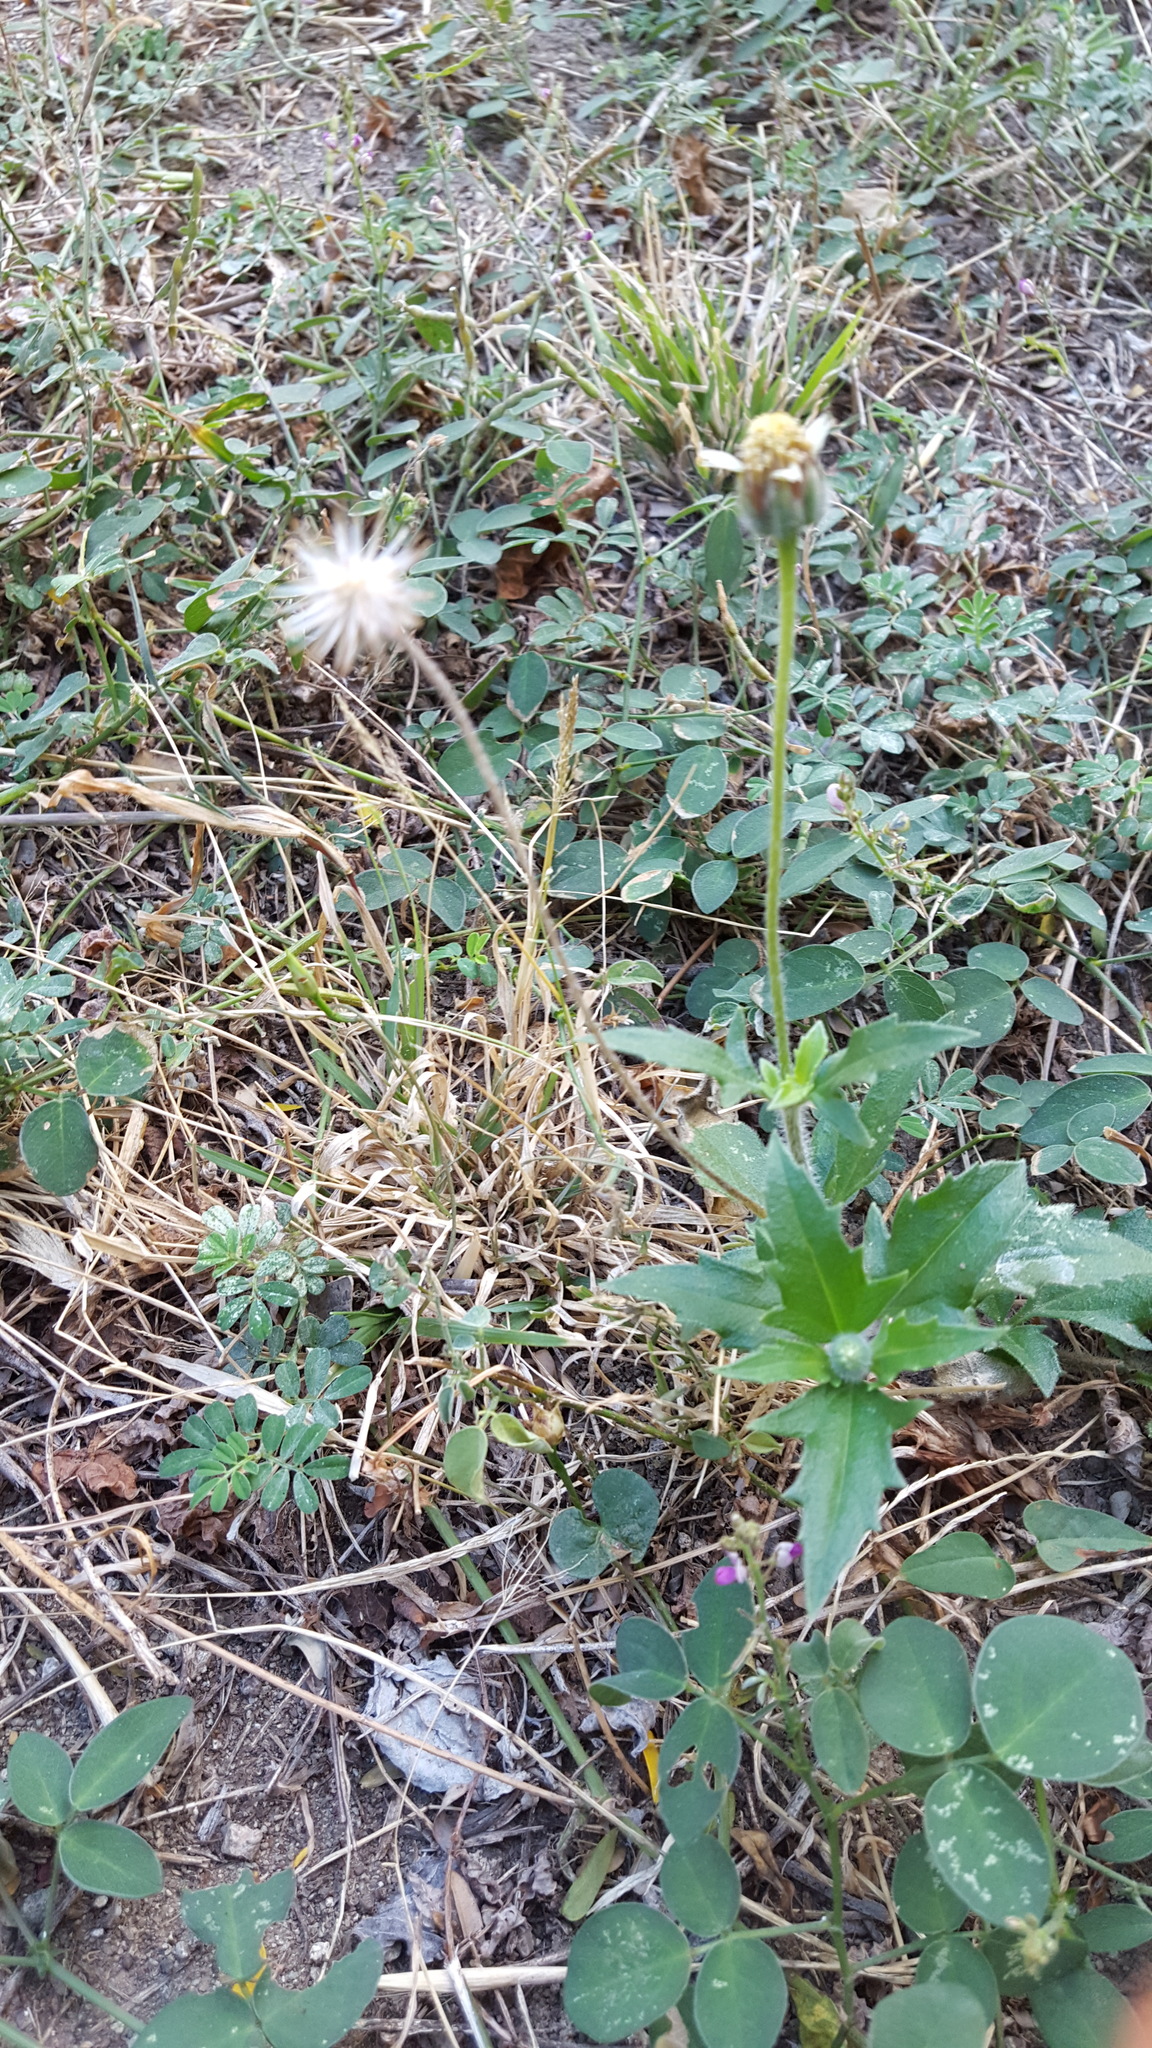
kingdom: Plantae
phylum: Tracheophyta
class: Magnoliopsida
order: Asterales
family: Asteraceae
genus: Tridax
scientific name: Tridax procumbens
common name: Coatbuttons
